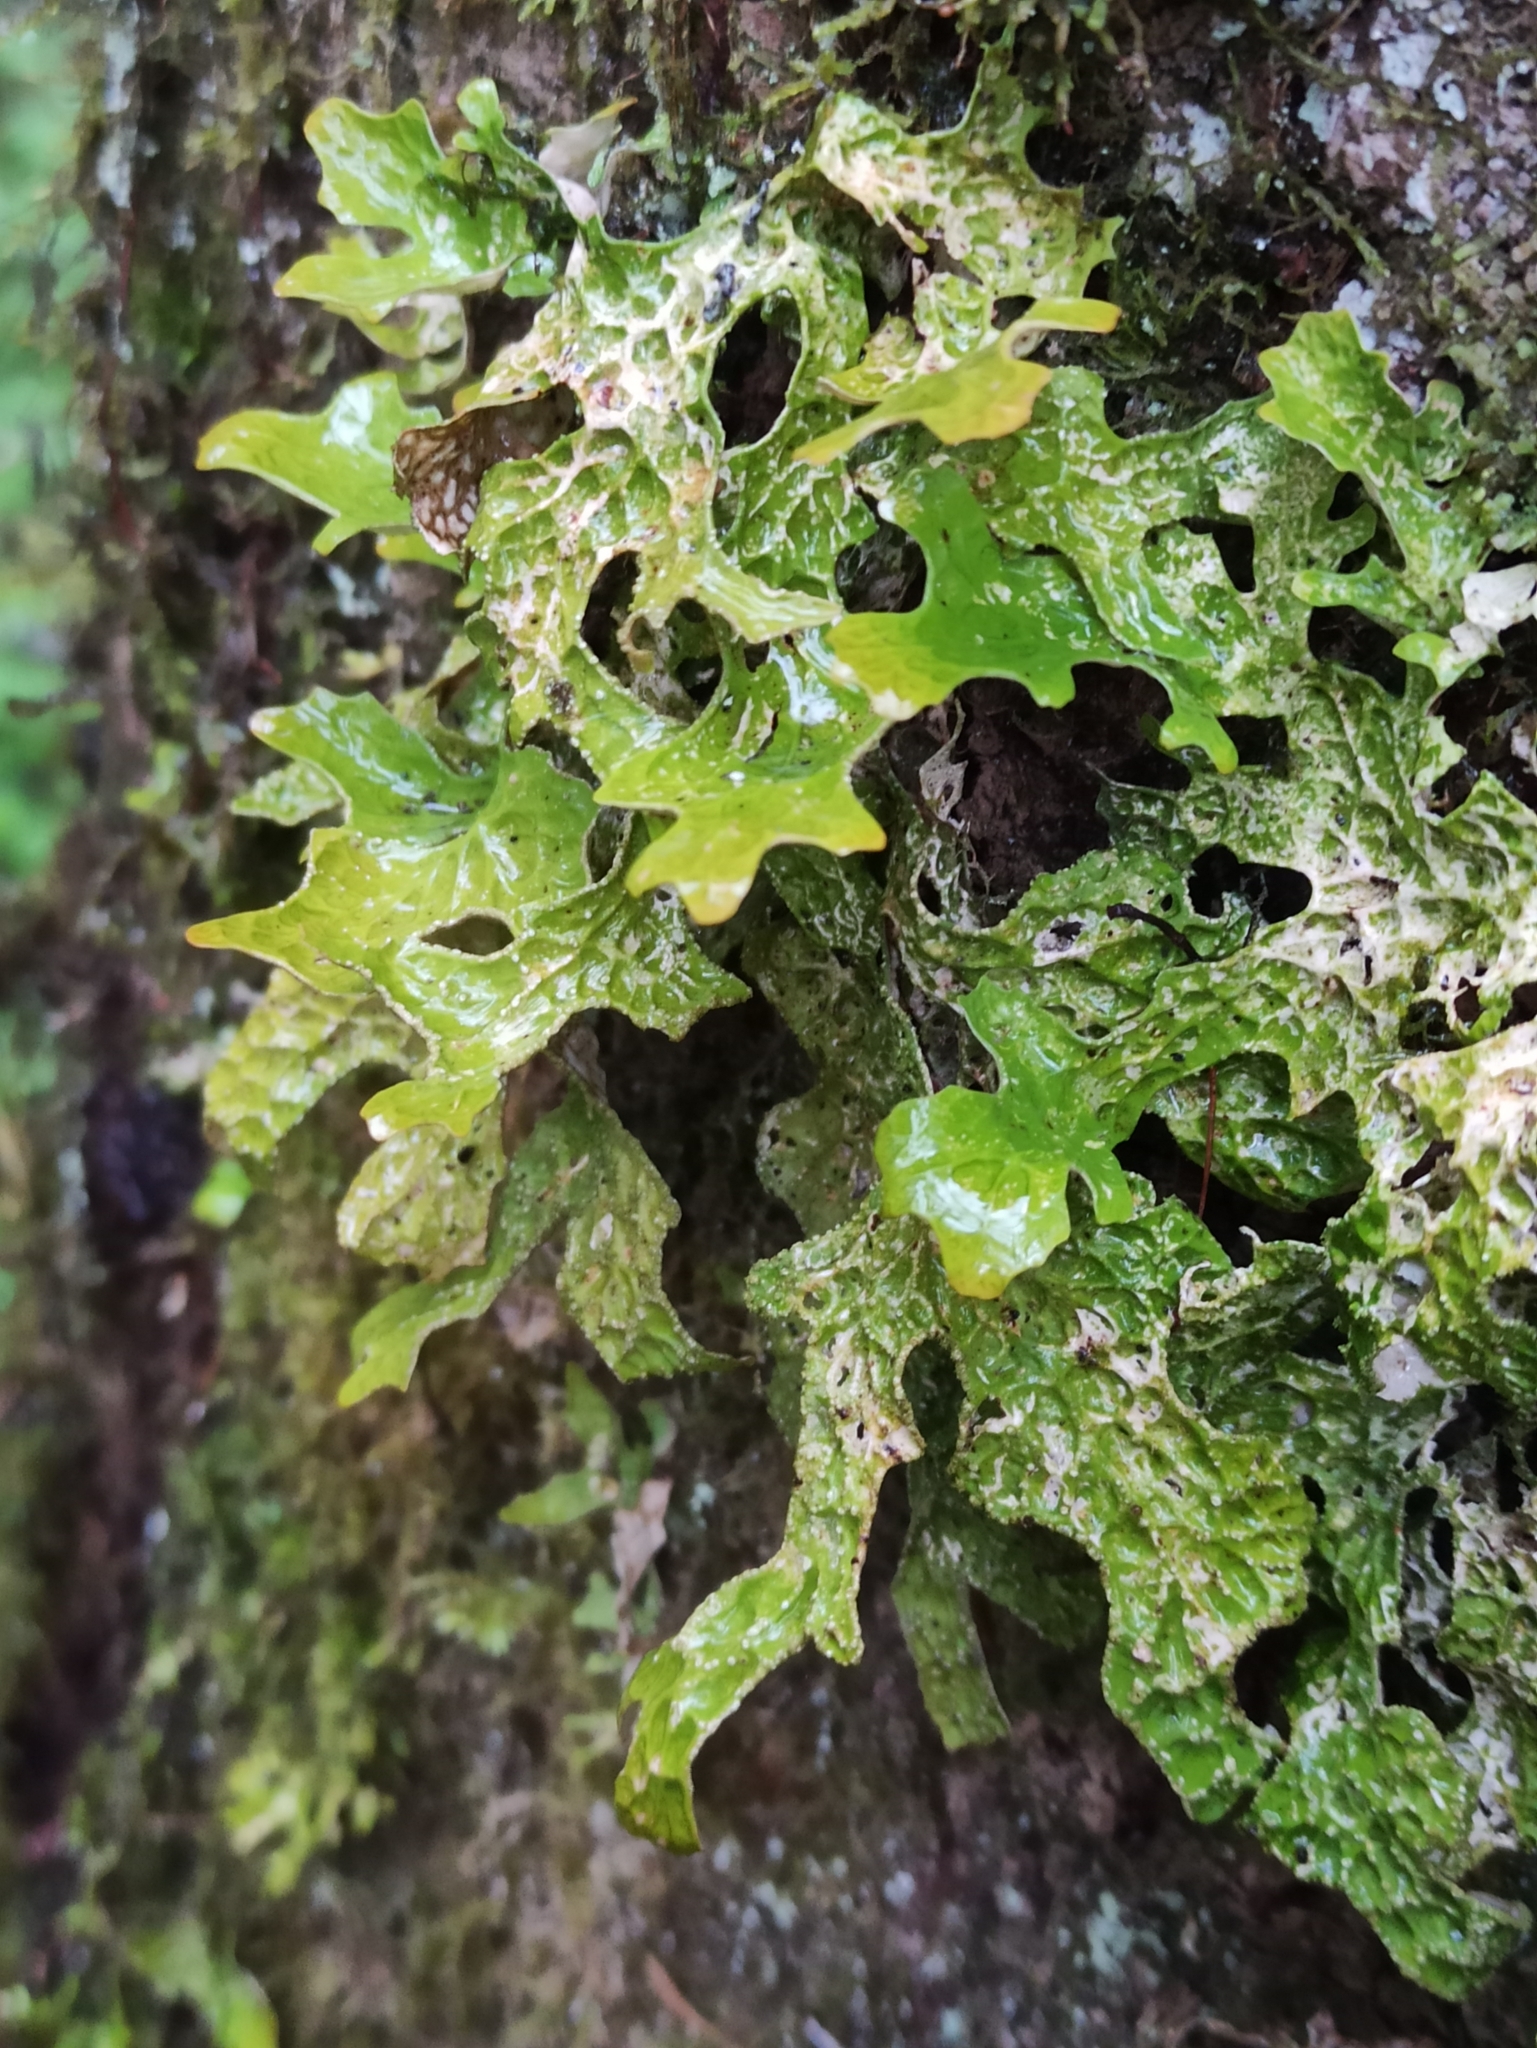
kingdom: Fungi
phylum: Ascomycota
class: Lecanoromycetes
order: Peltigerales
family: Lobariaceae
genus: Lobaria
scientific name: Lobaria pulmonaria
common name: Lungwort
